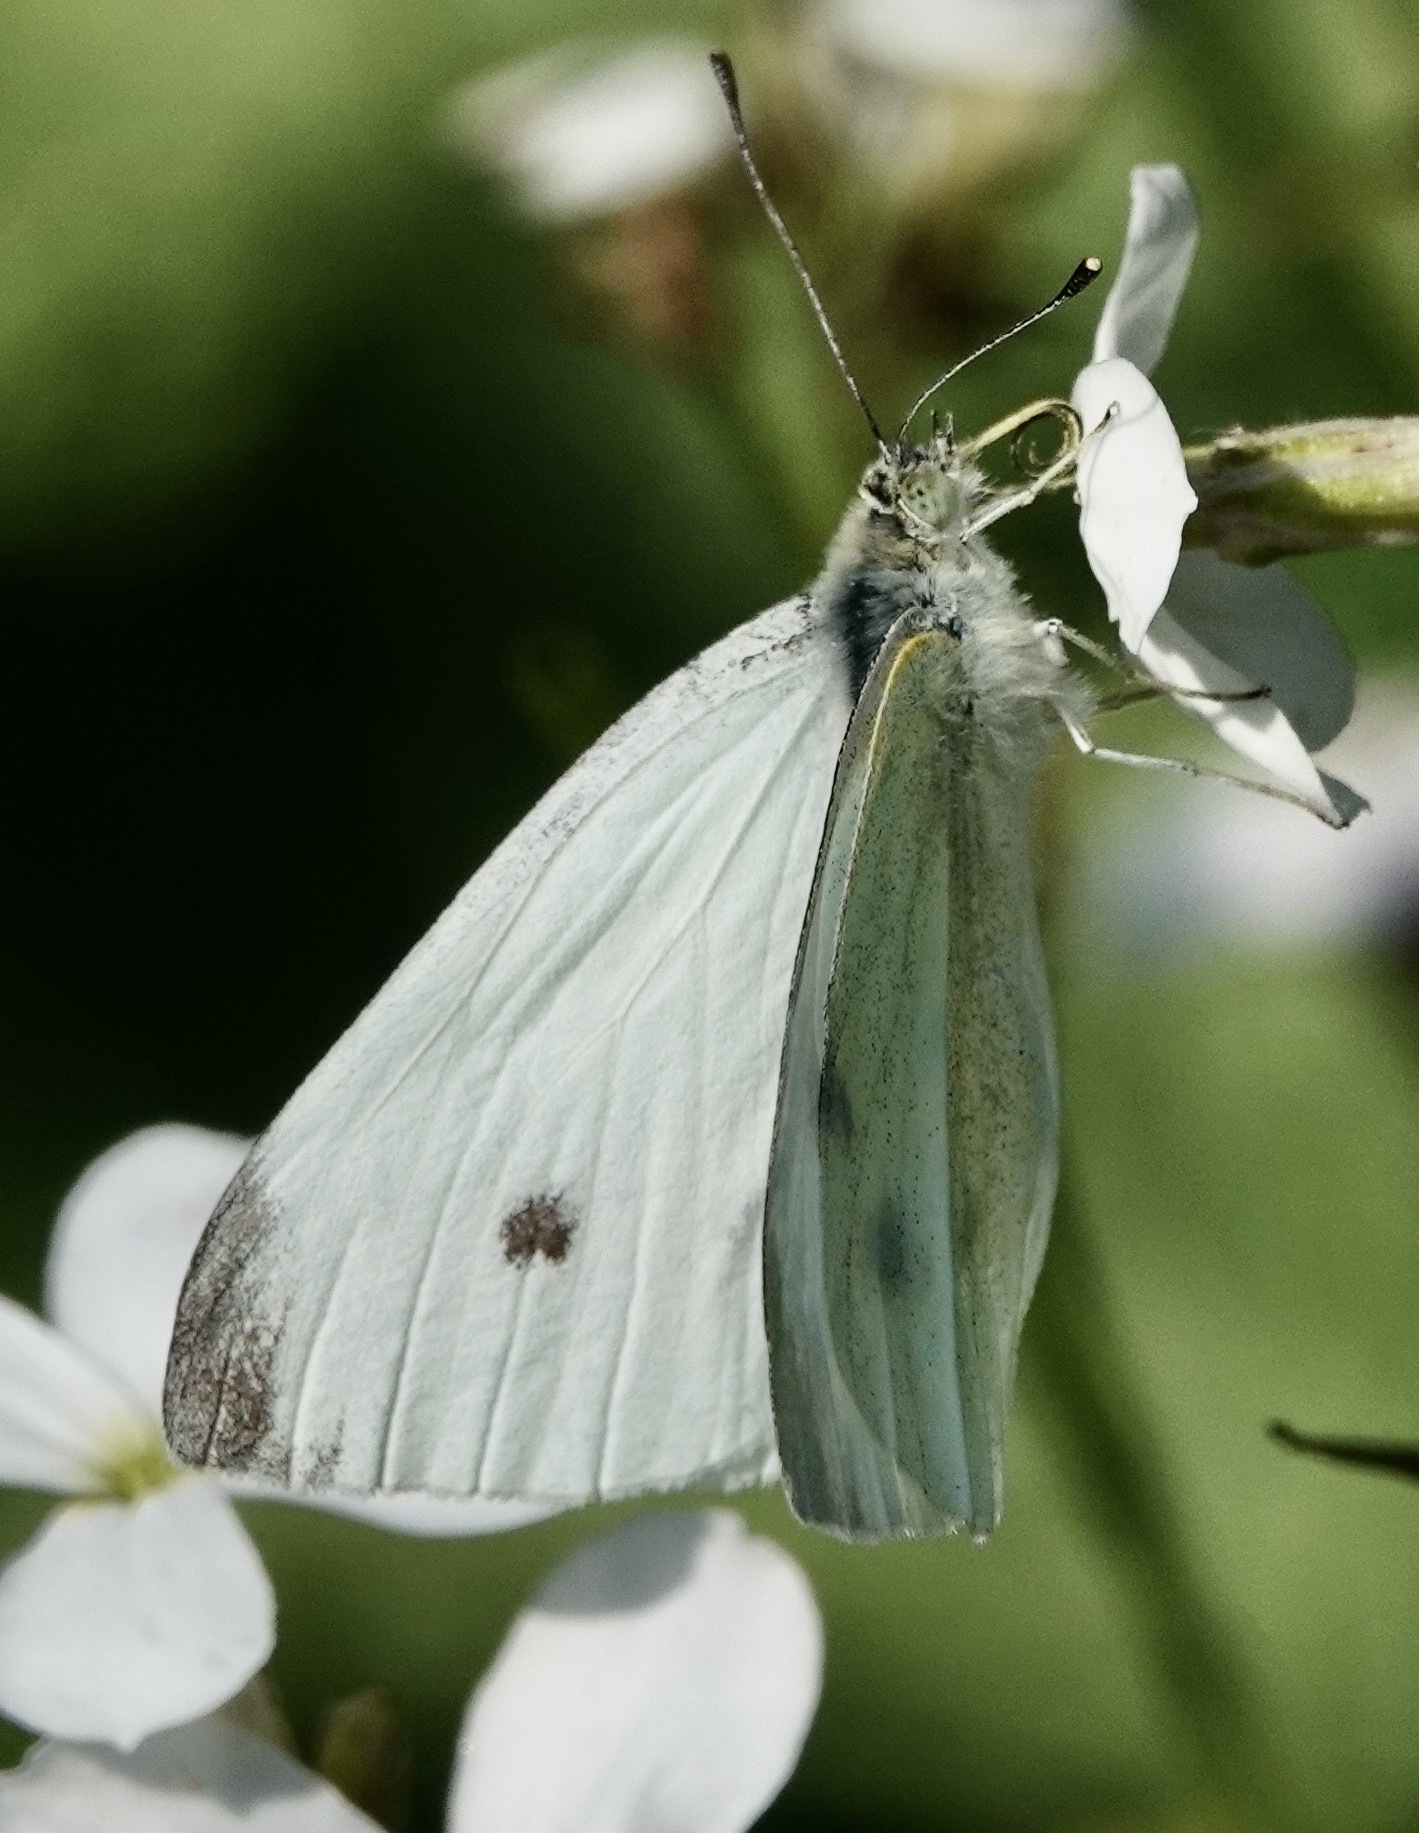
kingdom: Animalia
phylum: Arthropoda
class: Insecta
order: Lepidoptera
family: Pieridae
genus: Pieris
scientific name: Pieris rapae
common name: Small white
